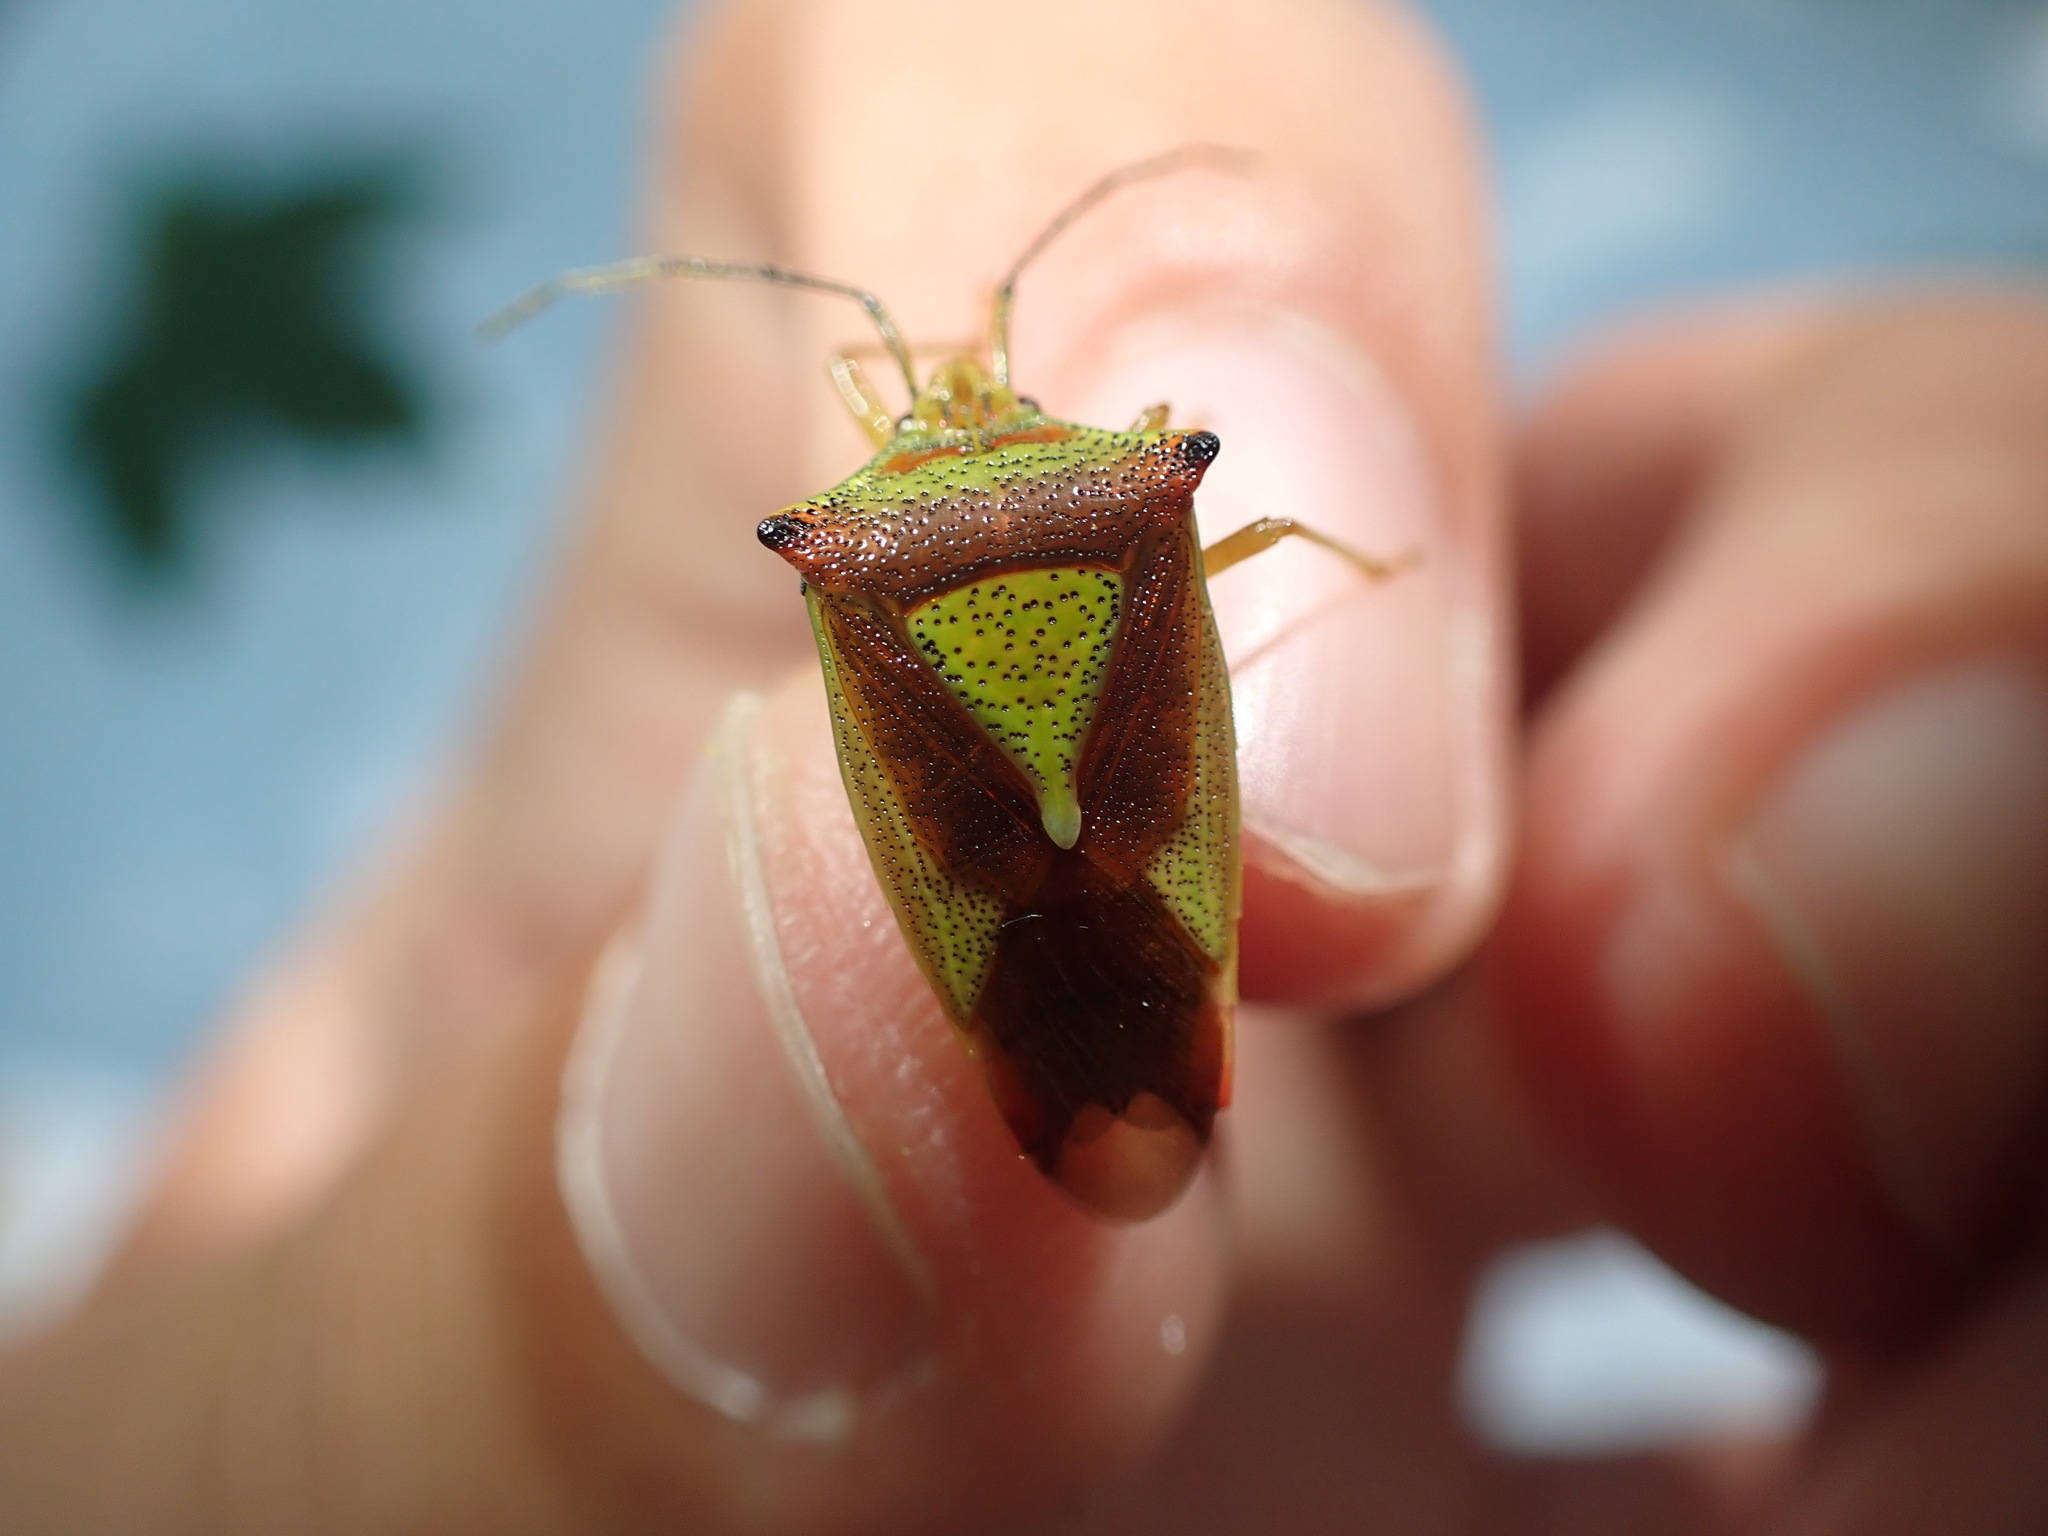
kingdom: Animalia
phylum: Arthropoda
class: Insecta
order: Hemiptera
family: Acanthosomatidae
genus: Acanthosoma
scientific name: Acanthosoma haemorrhoidale
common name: Hawthorn shieldbug
